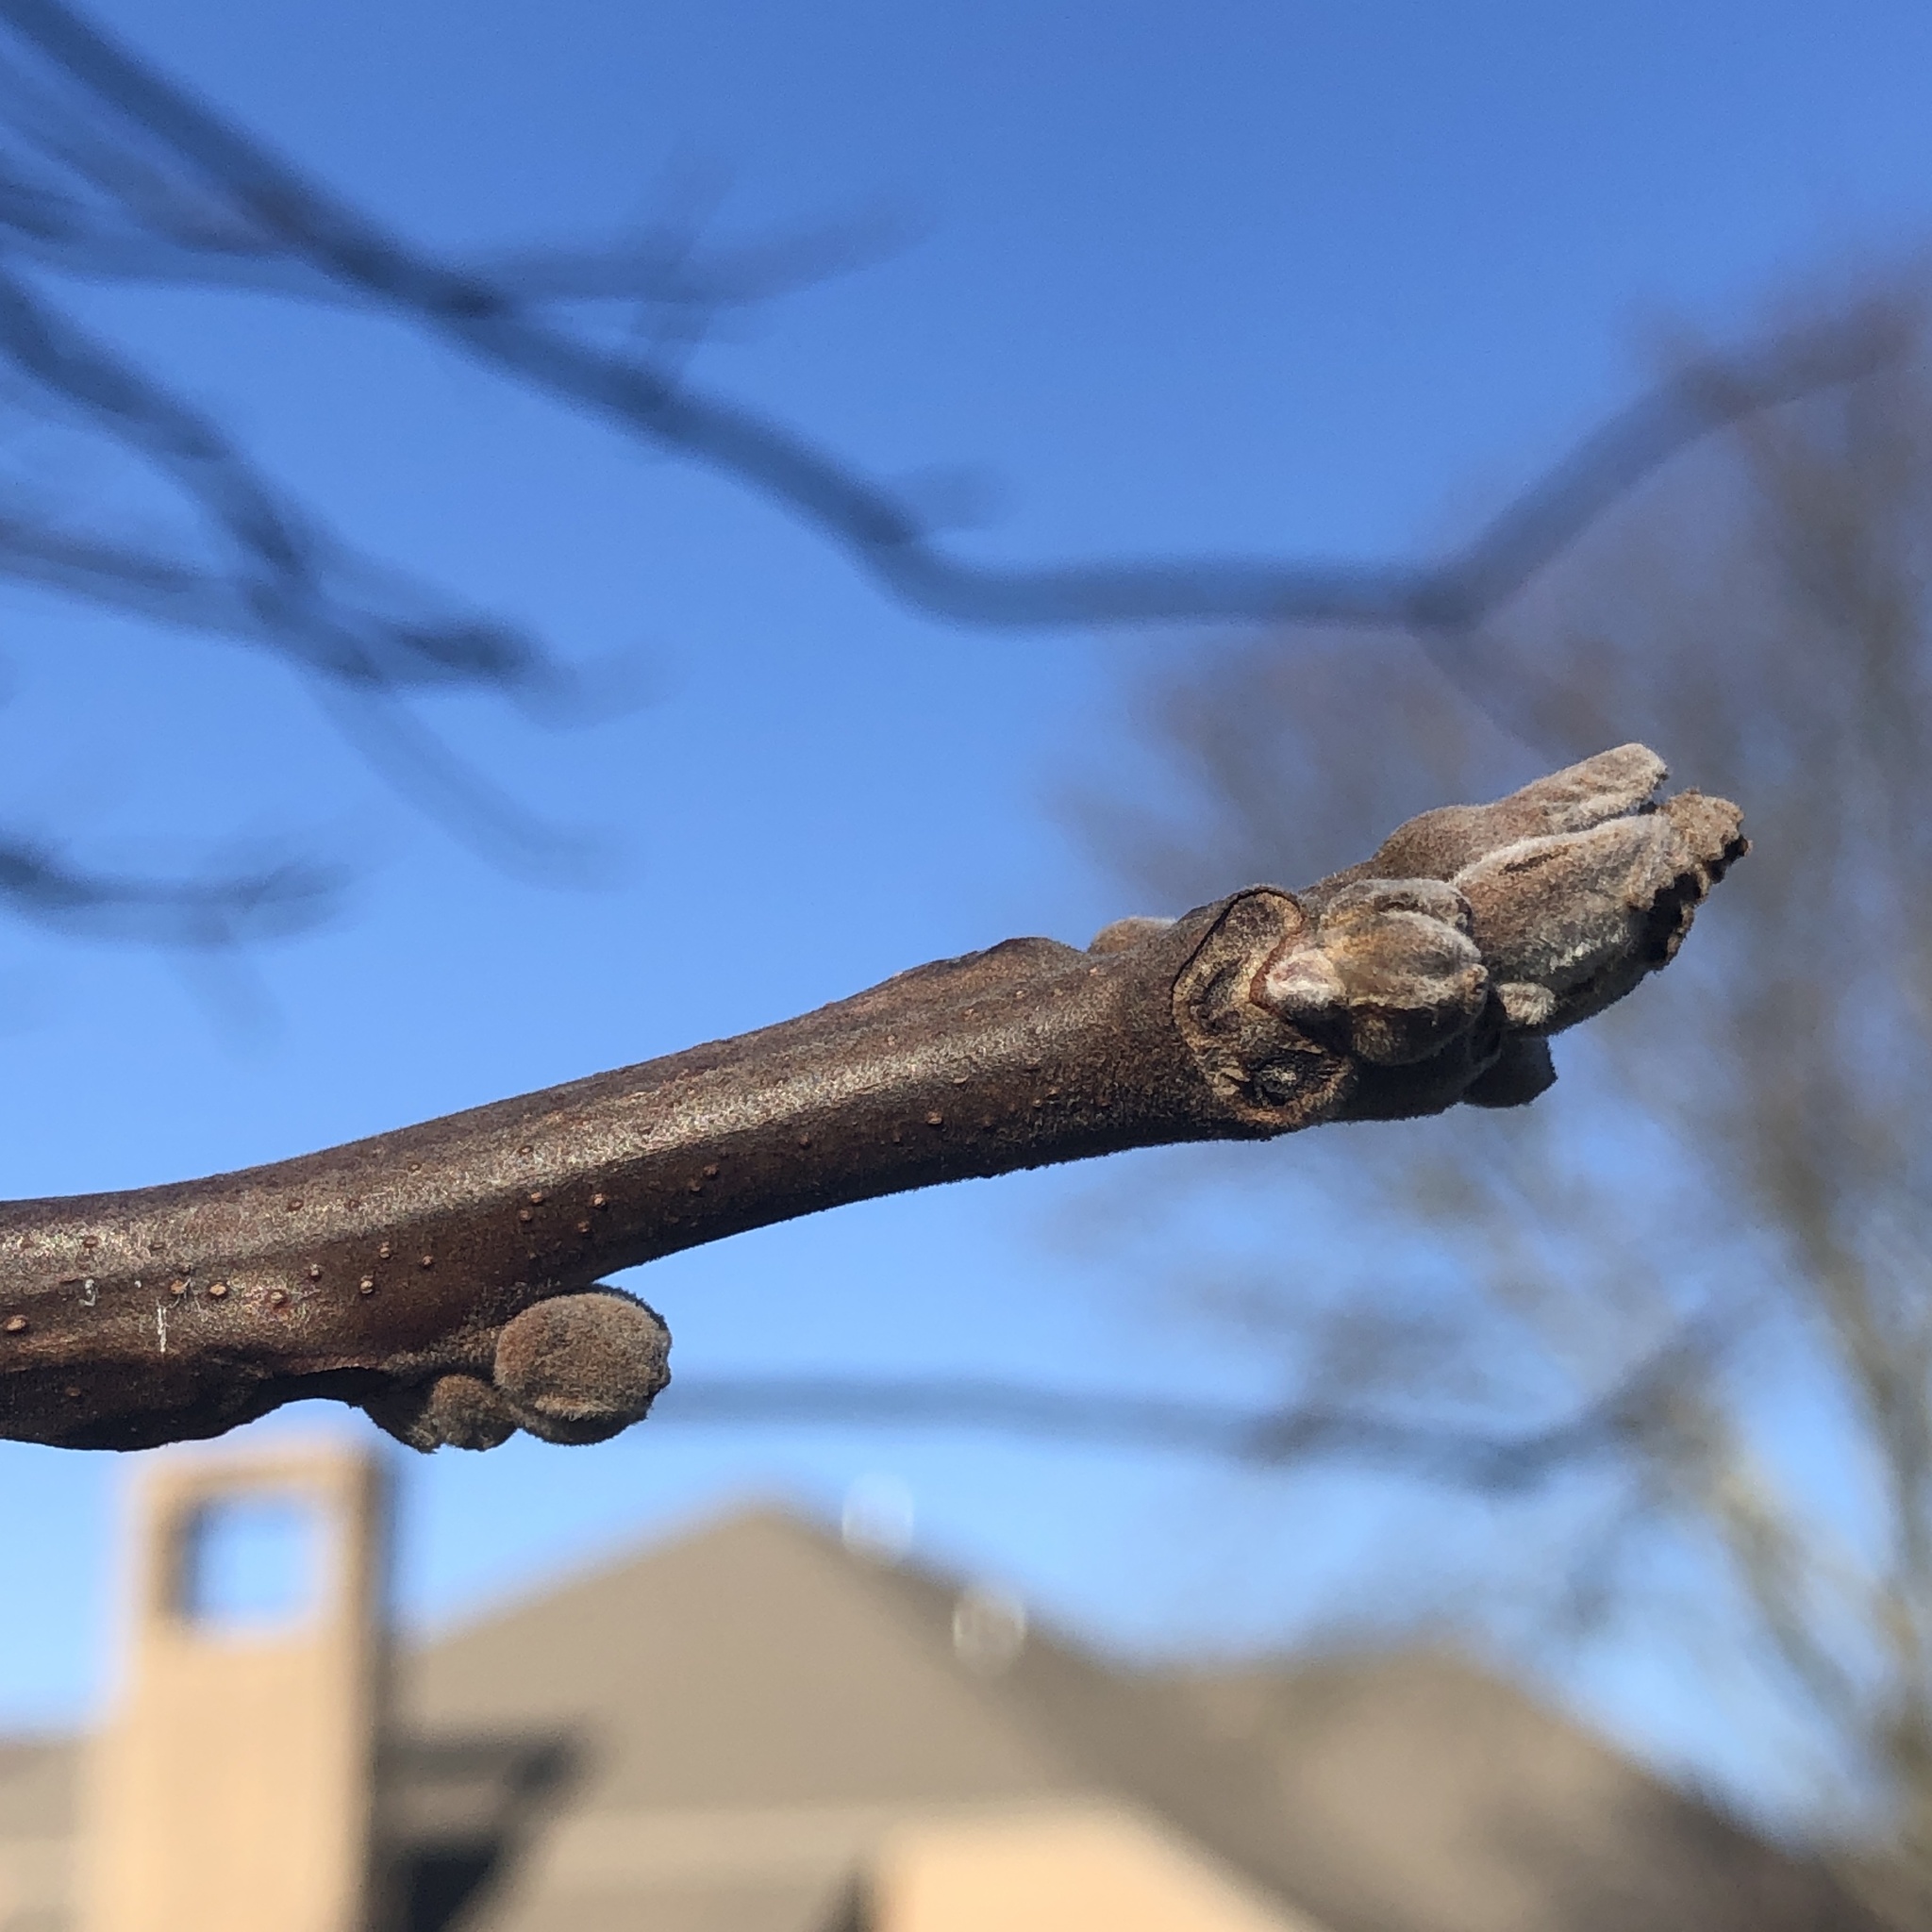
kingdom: Plantae
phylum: Tracheophyta
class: Magnoliopsida
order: Fagales
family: Juglandaceae
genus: Juglans
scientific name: Juglans nigra
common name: Black walnut
